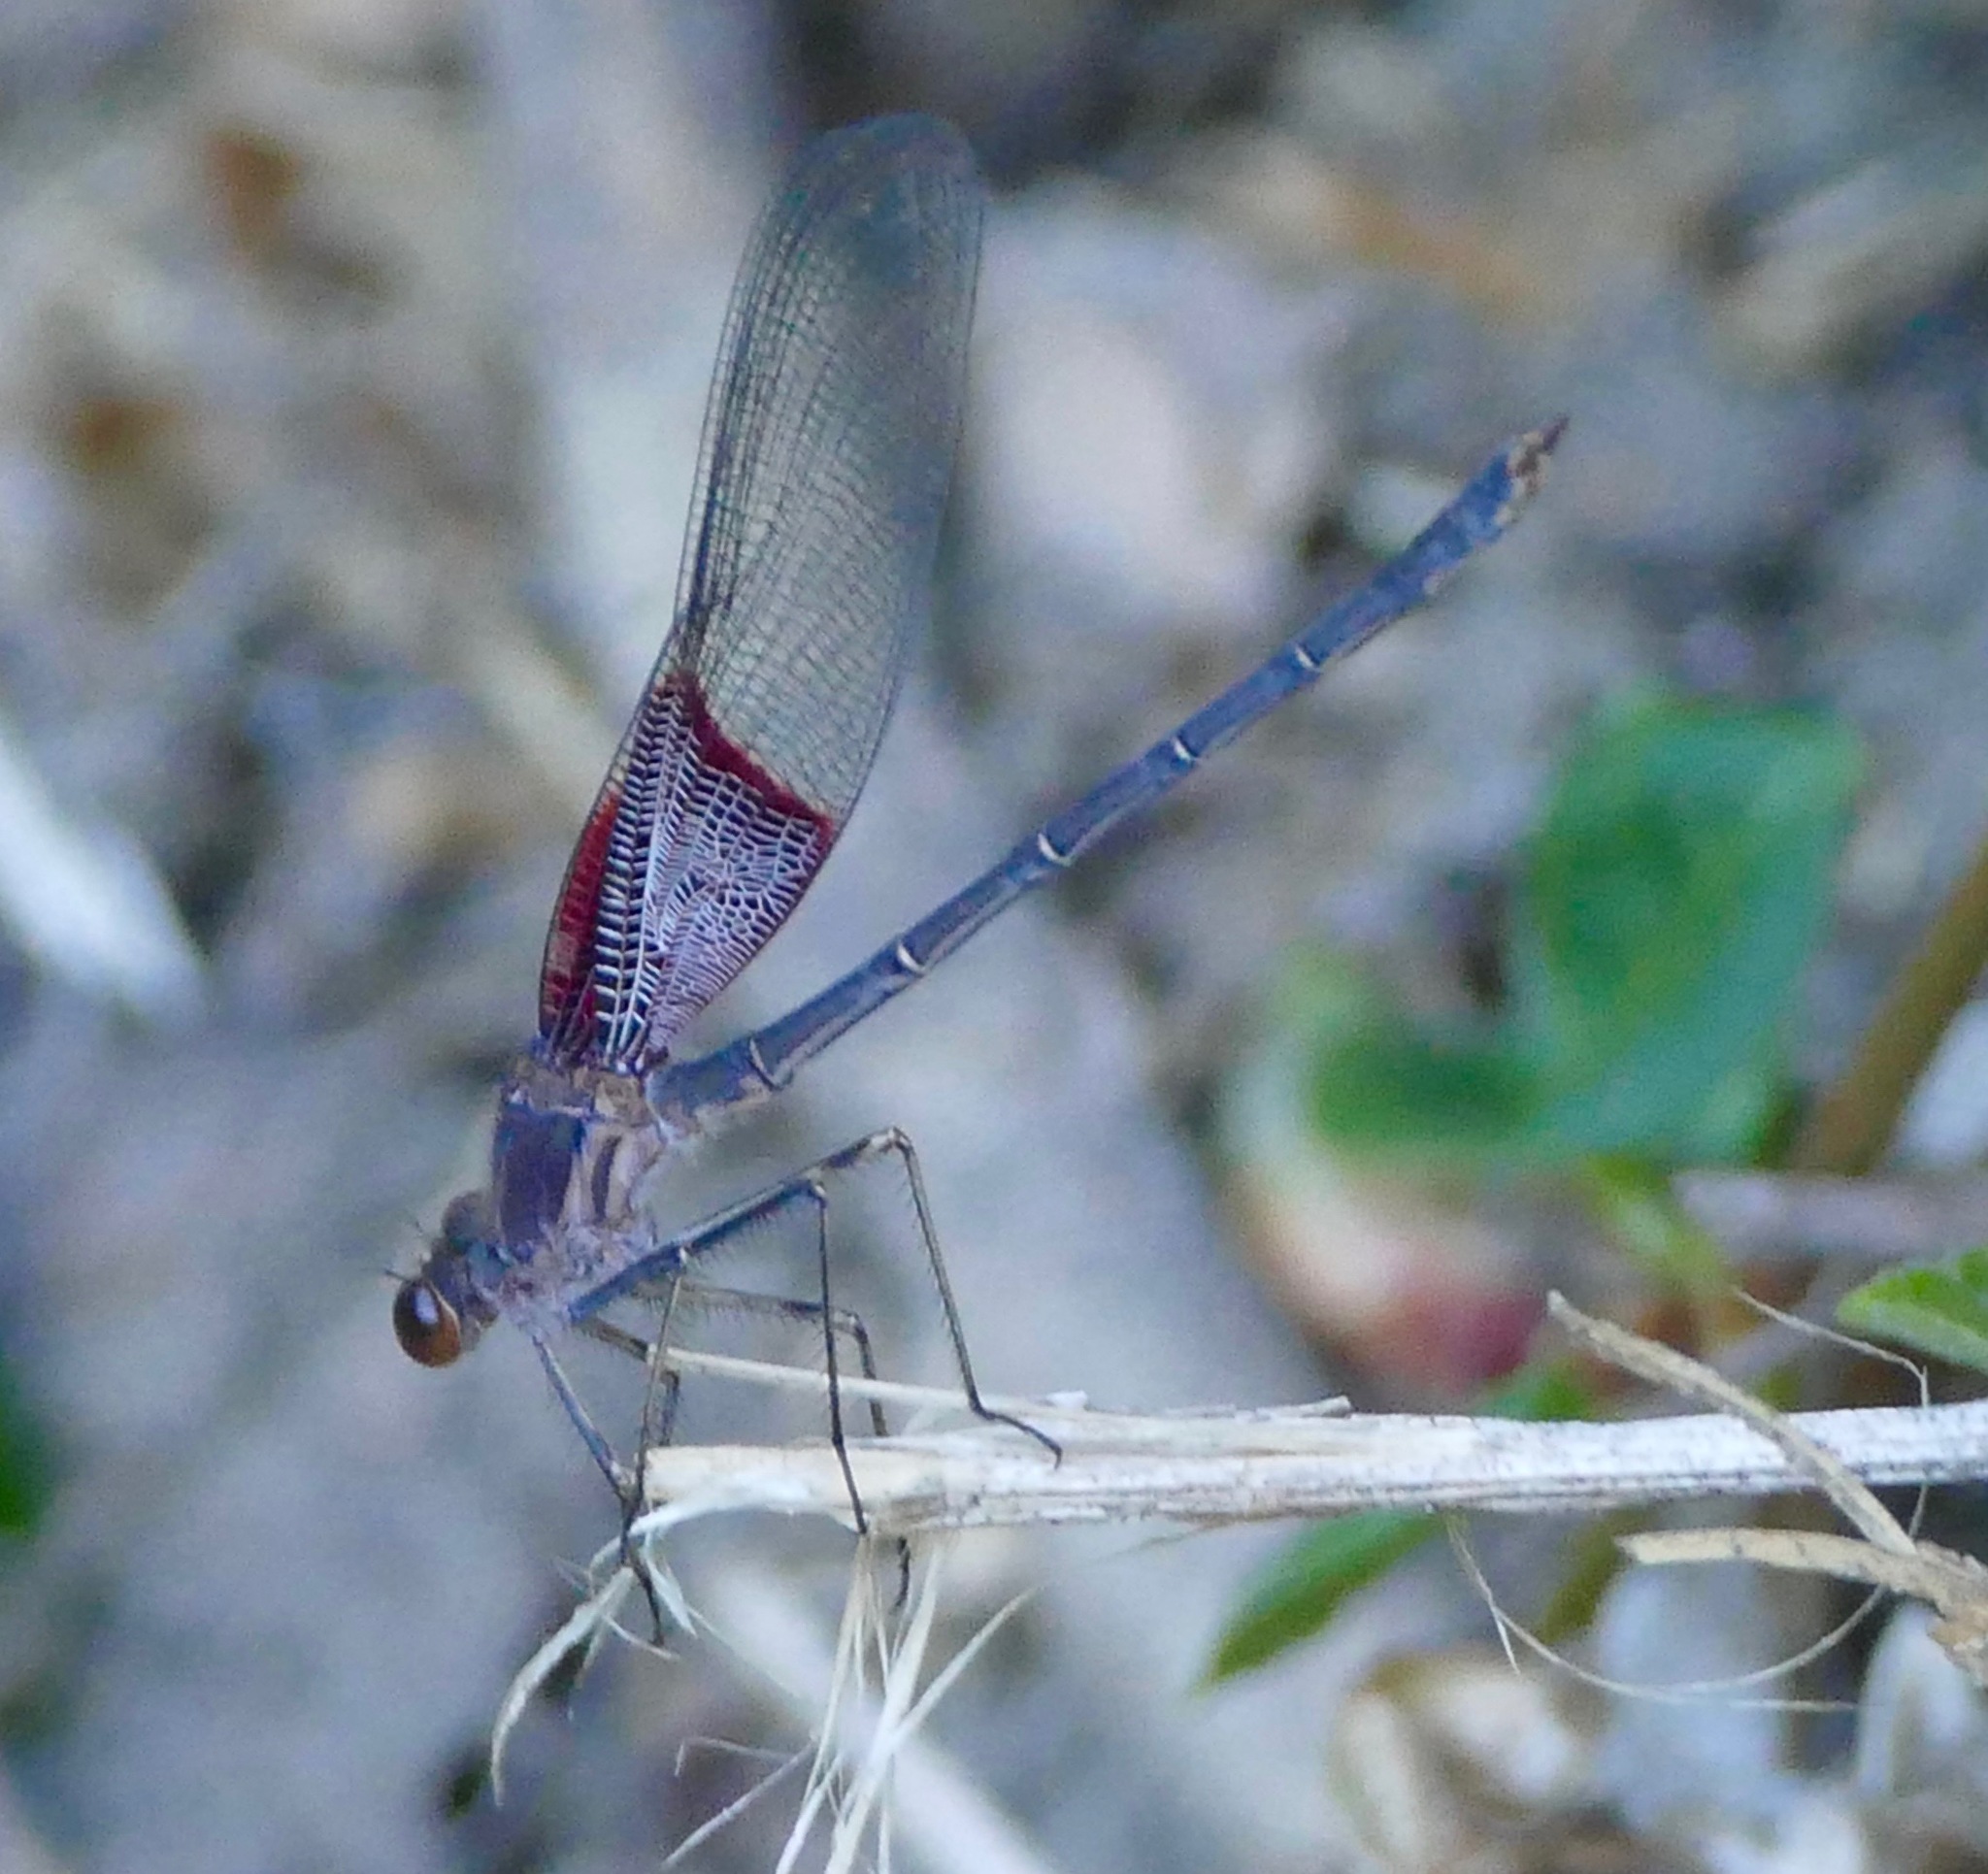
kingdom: Animalia
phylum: Arthropoda
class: Insecta
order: Odonata
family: Calopterygidae
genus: Hetaerina
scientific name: Hetaerina americana
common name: American rubyspot
